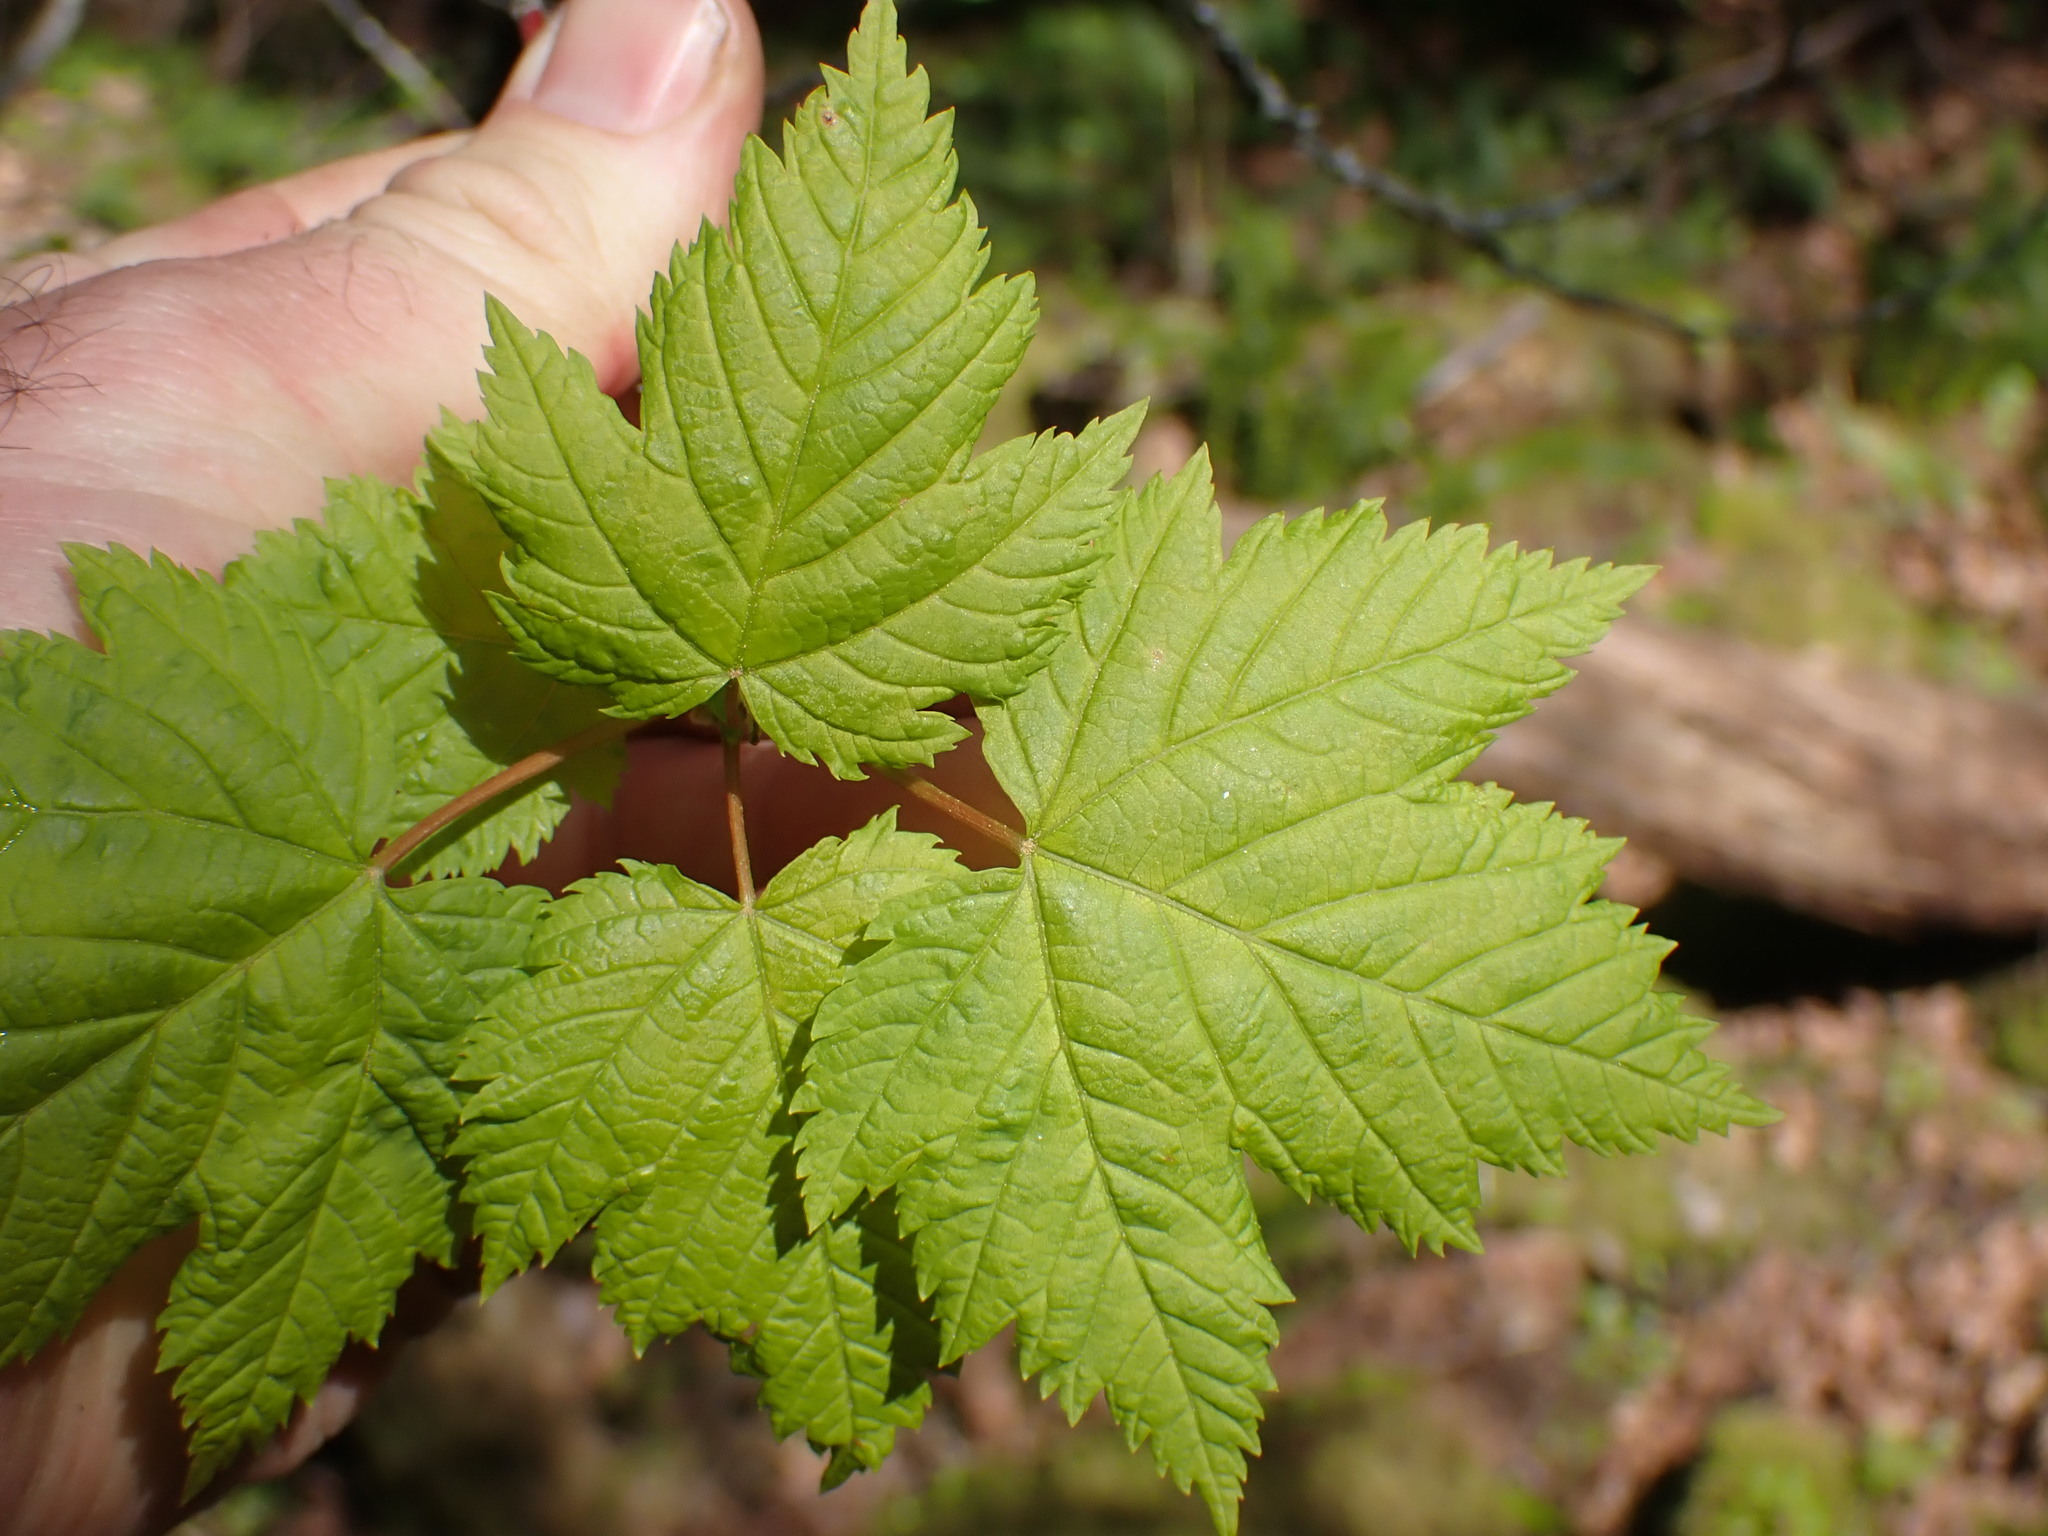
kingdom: Plantae
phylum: Tracheophyta
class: Magnoliopsida
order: Sapindales
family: Sapindaceae
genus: Acer
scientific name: Acer glabrum
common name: Rocky mountain maple
